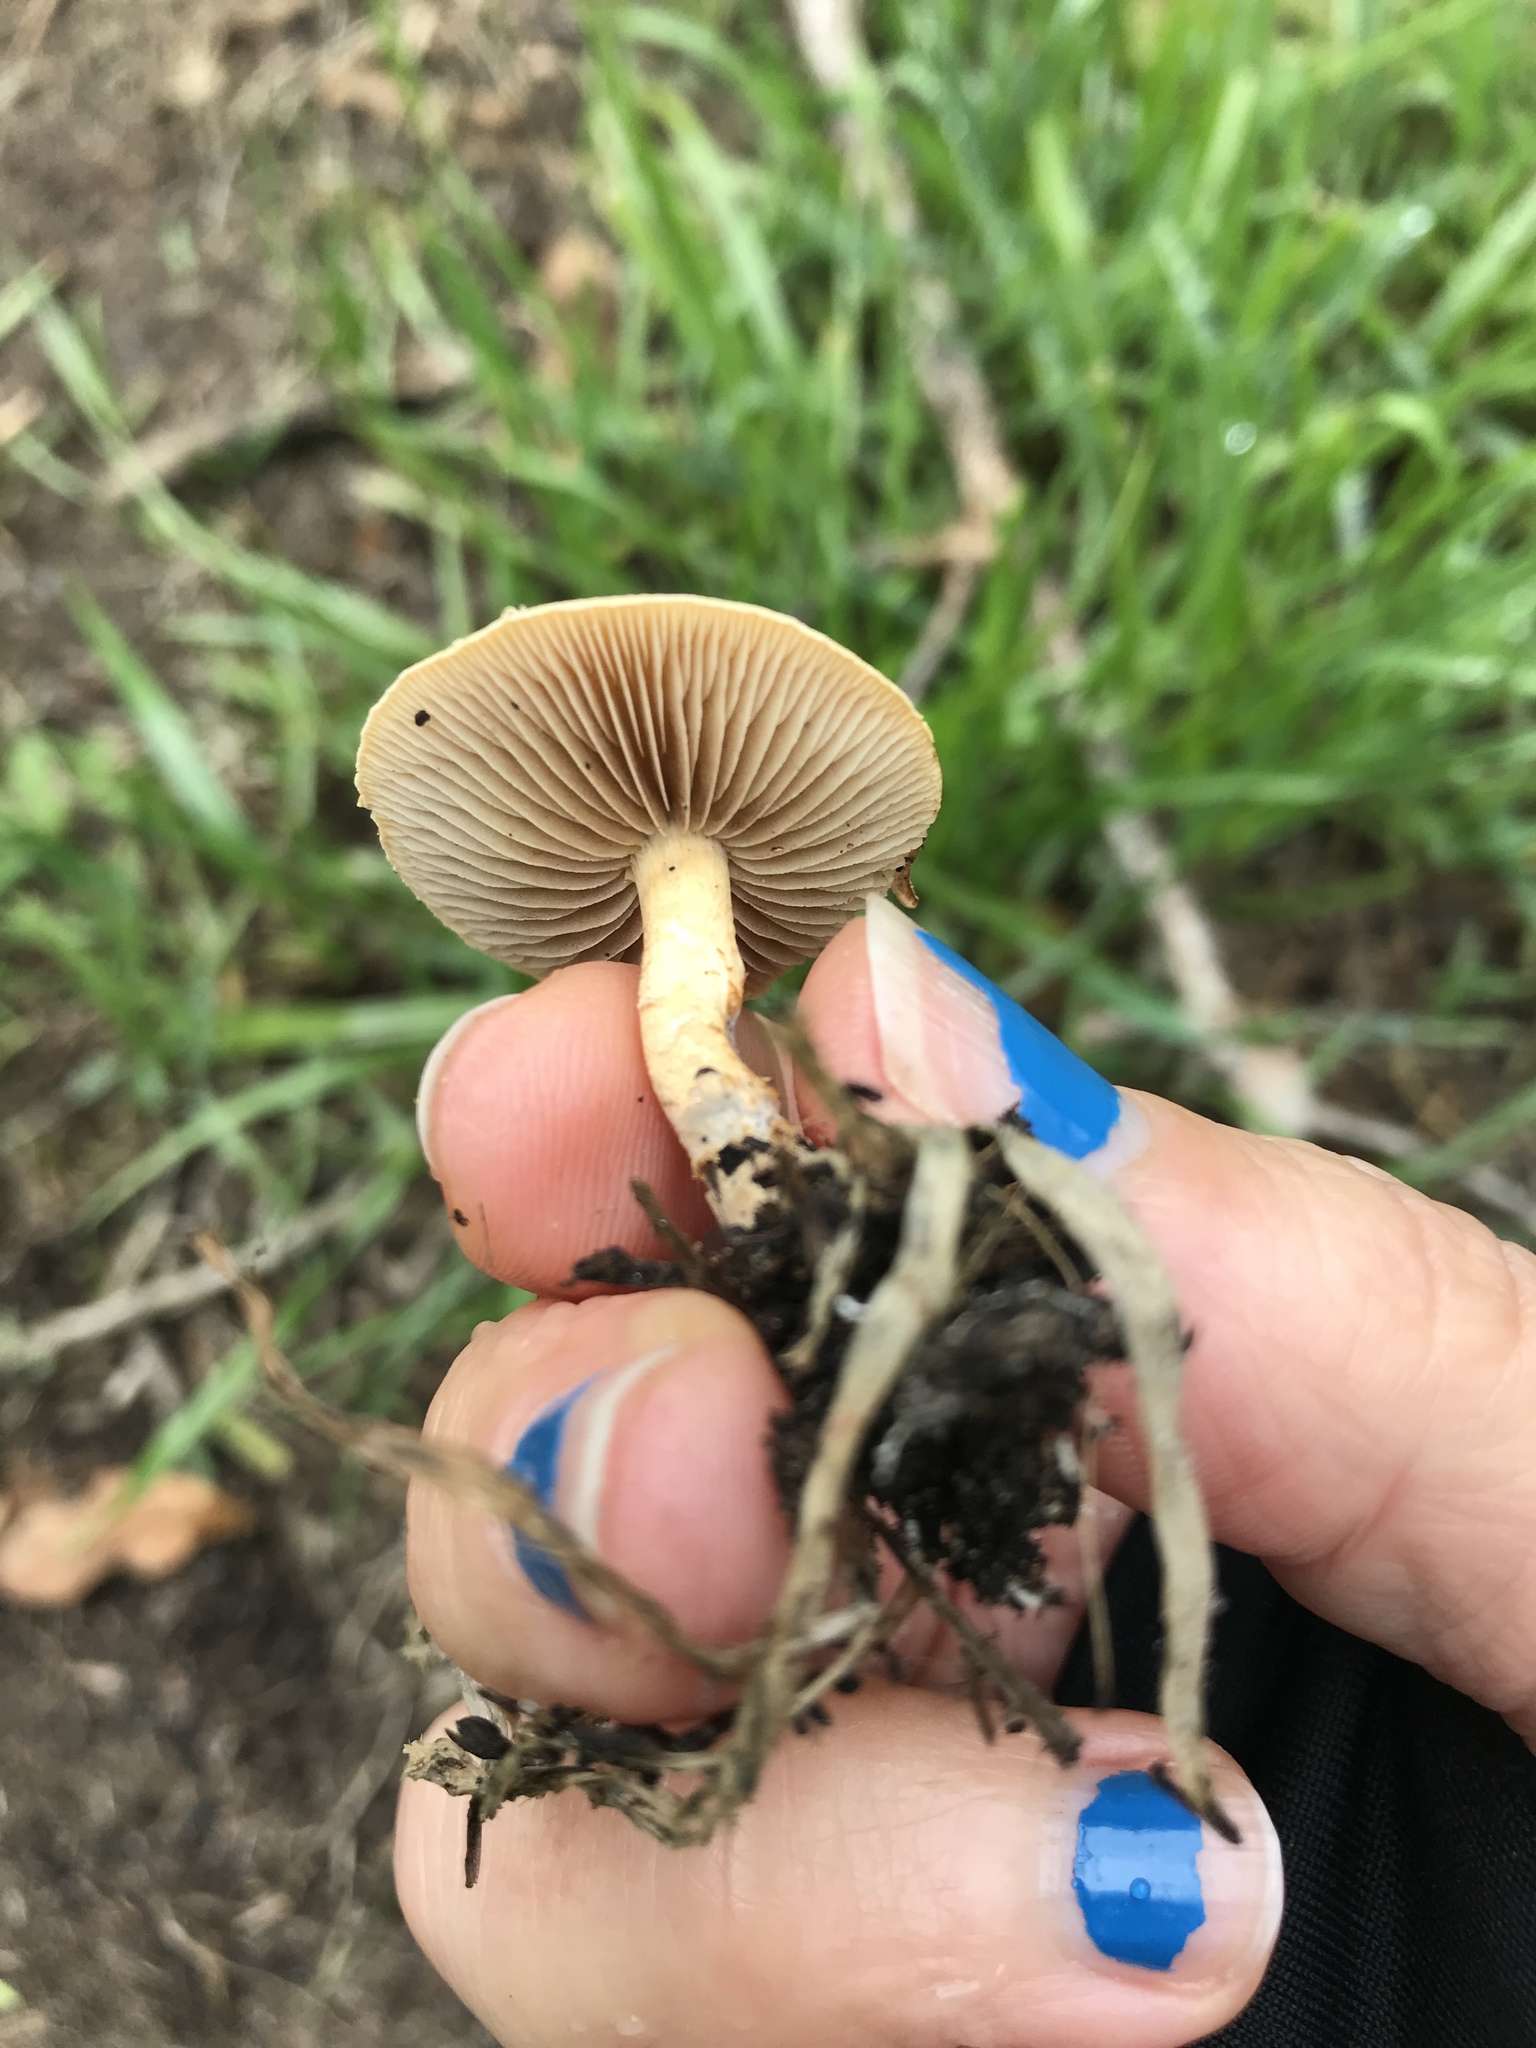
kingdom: Fungi
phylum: Basidiomycota
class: Agaricomycetes
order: Agaricales
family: Strophariaceae
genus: Agrocybe
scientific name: Agrocybe pediades
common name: Common fieldcap
